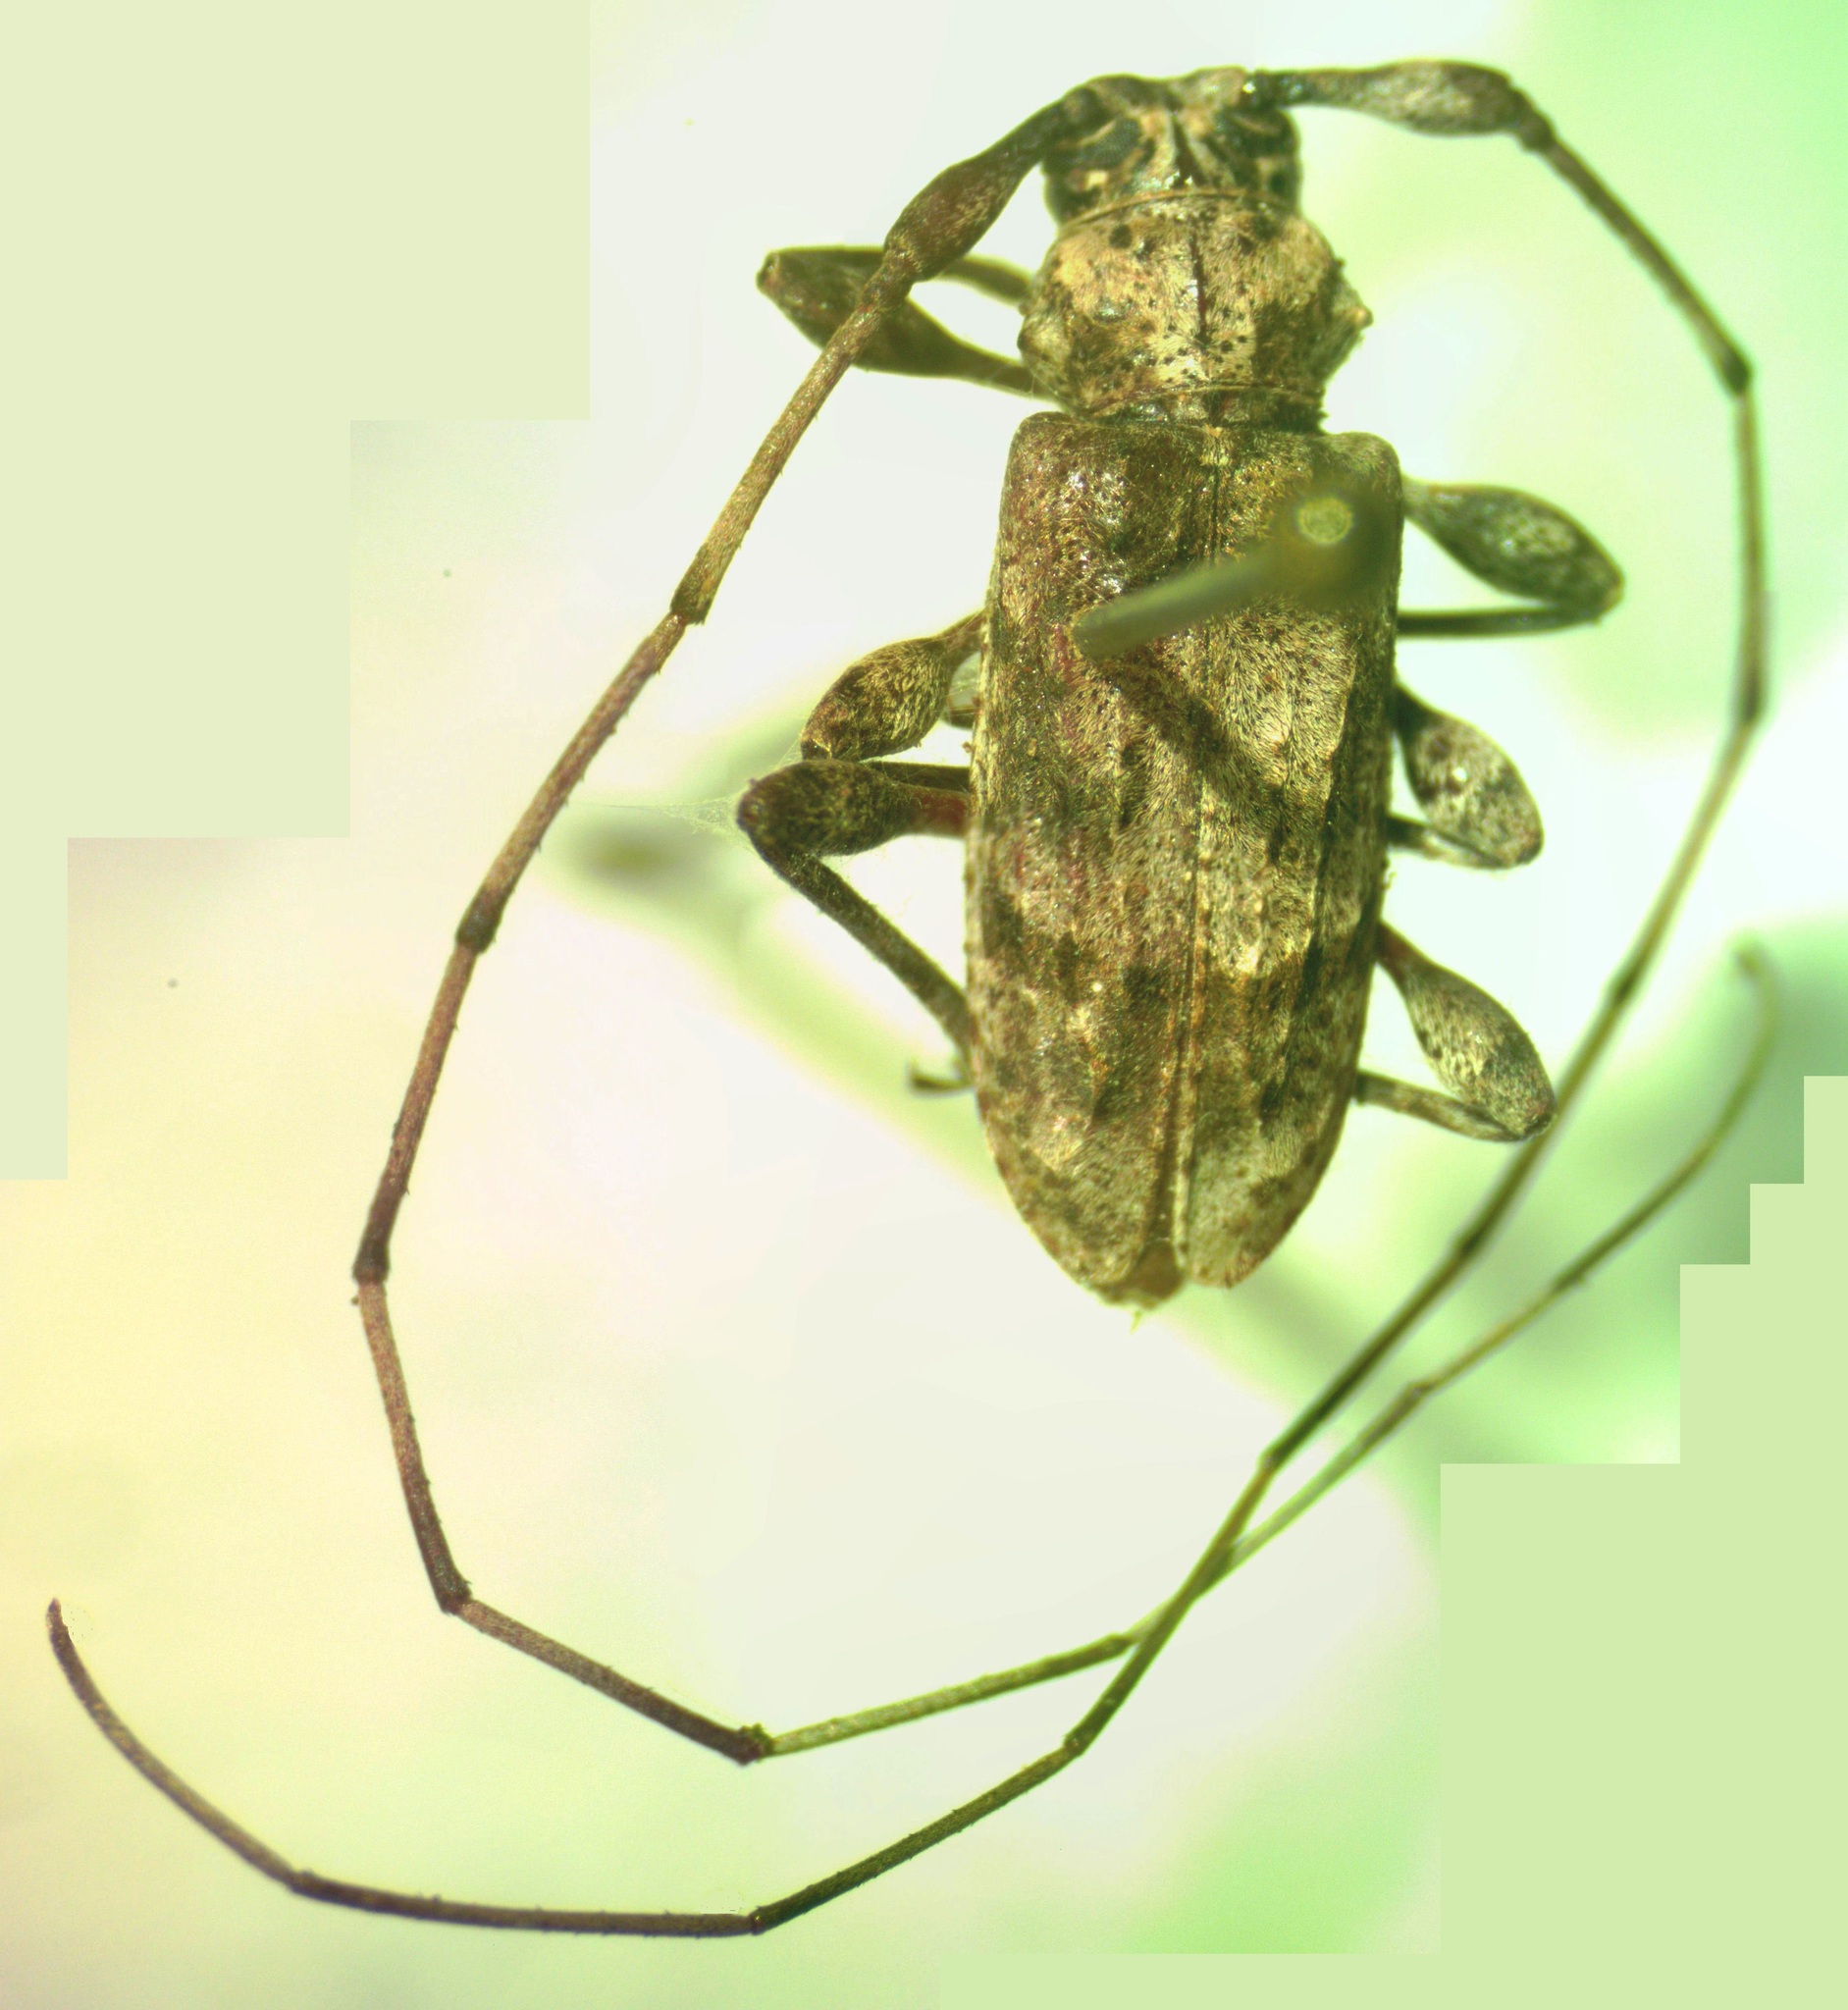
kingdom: Animalia
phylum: Arthropoda
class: Insecta
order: Coleoptera
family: Cerambycidae
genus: Olenosus
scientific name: Olenosus serrimanus
